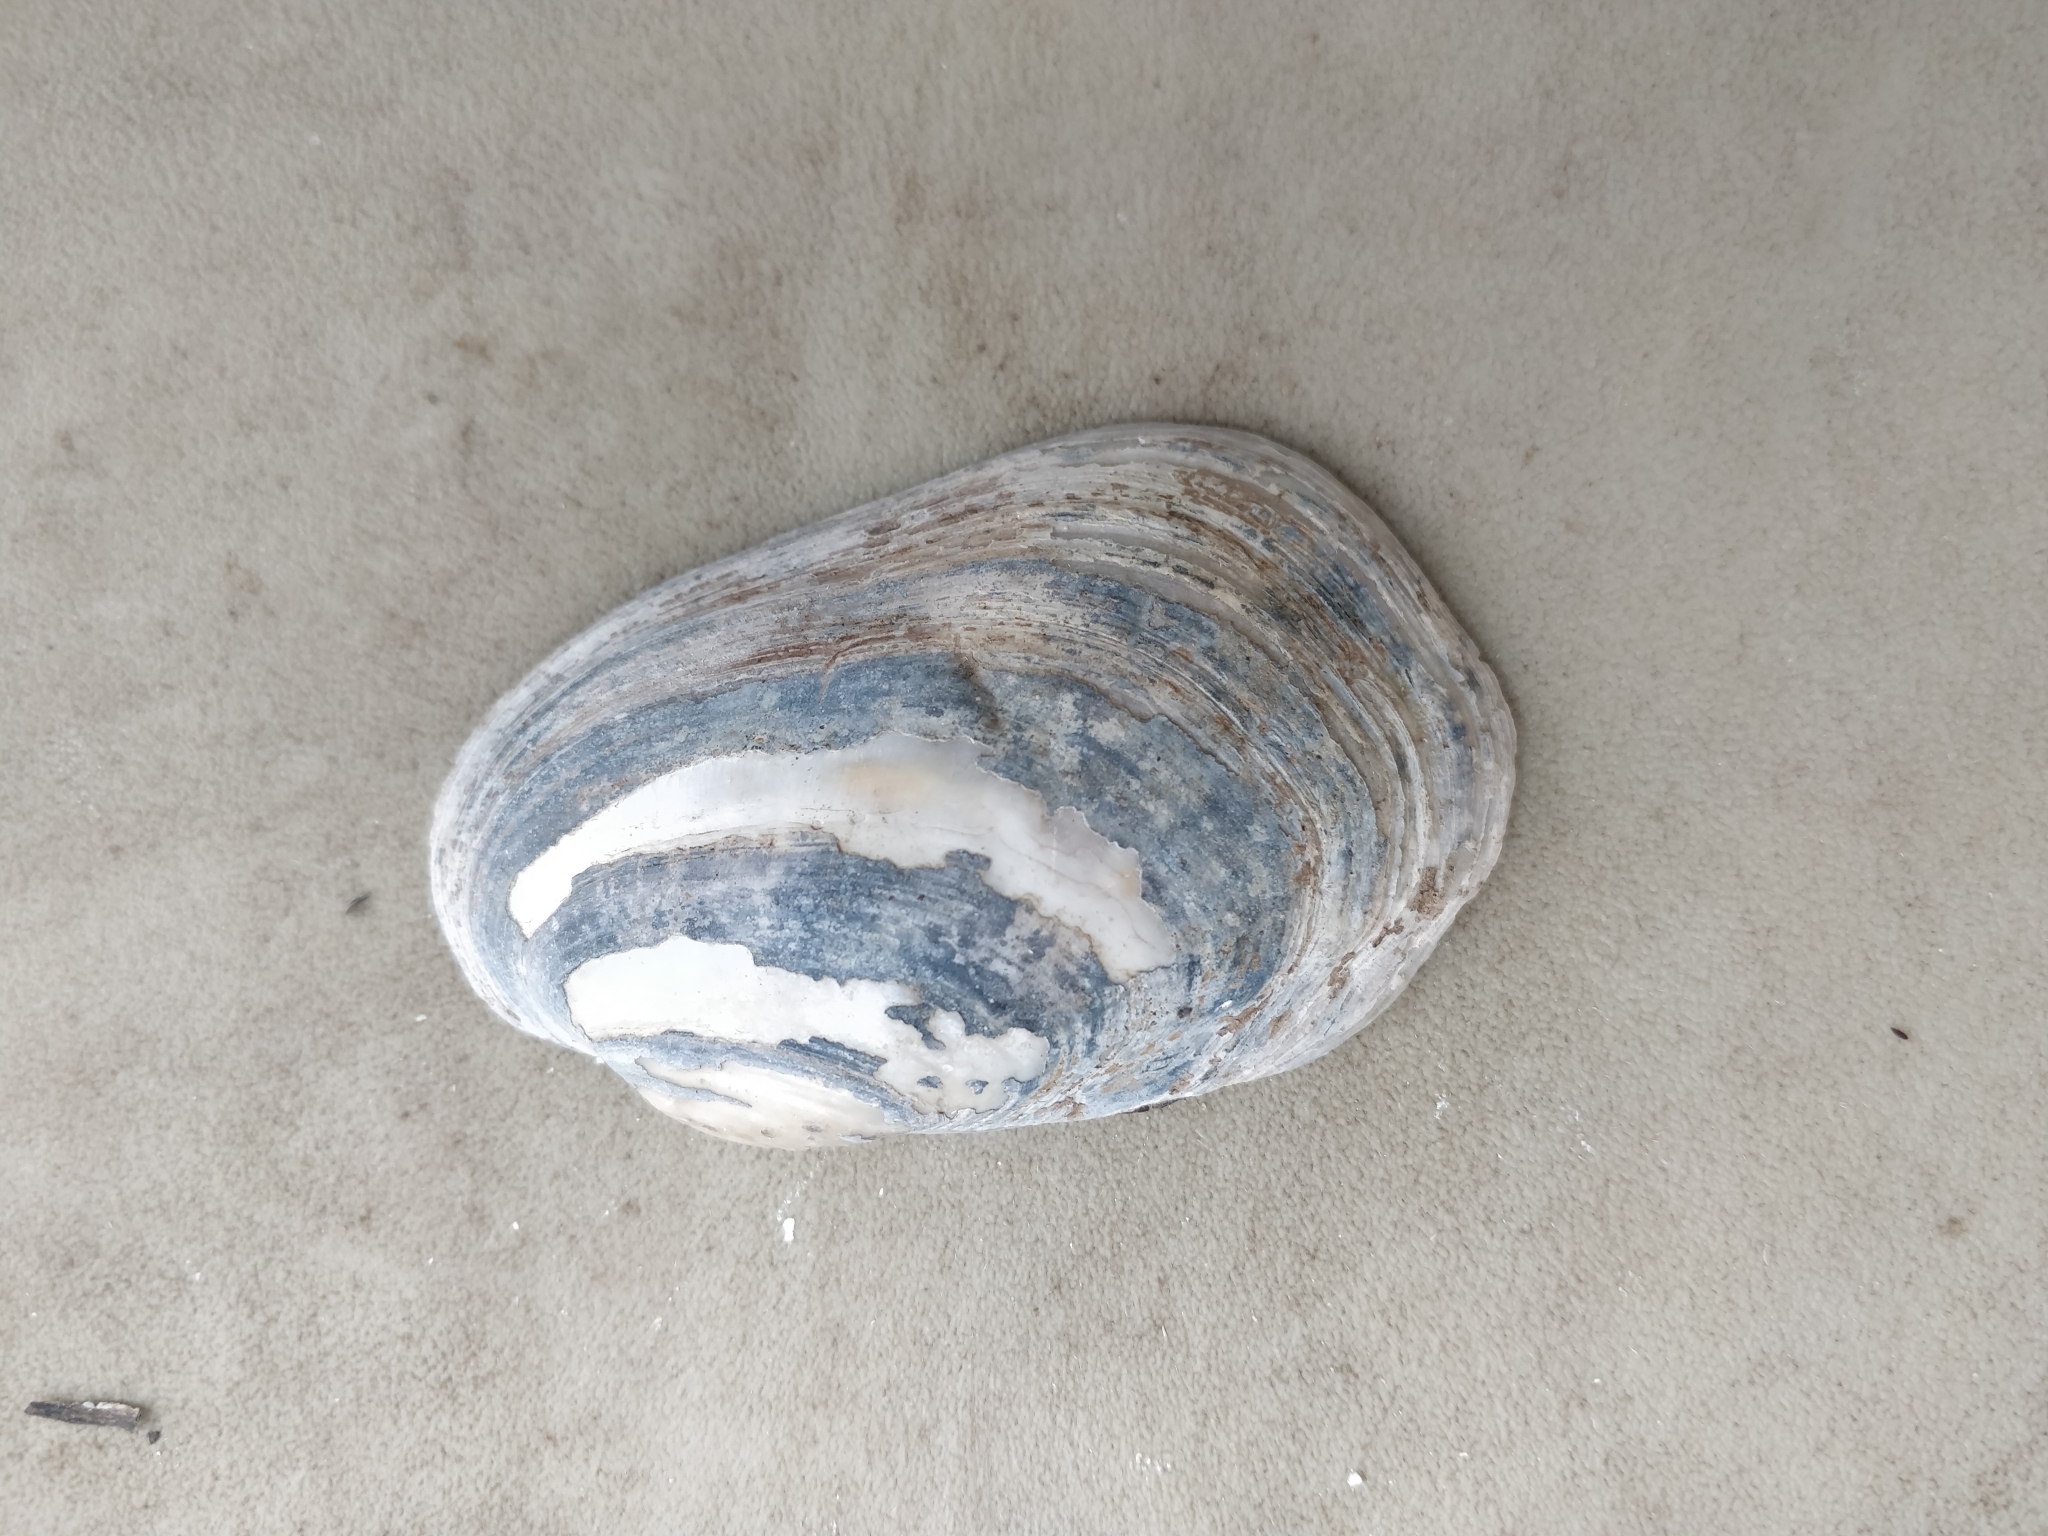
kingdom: Animalia
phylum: Mollusca
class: Bivalvia
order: Unionida
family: Unionidae
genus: Lampsilis
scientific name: Lampsilis siliquoidea
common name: Fatmucket
